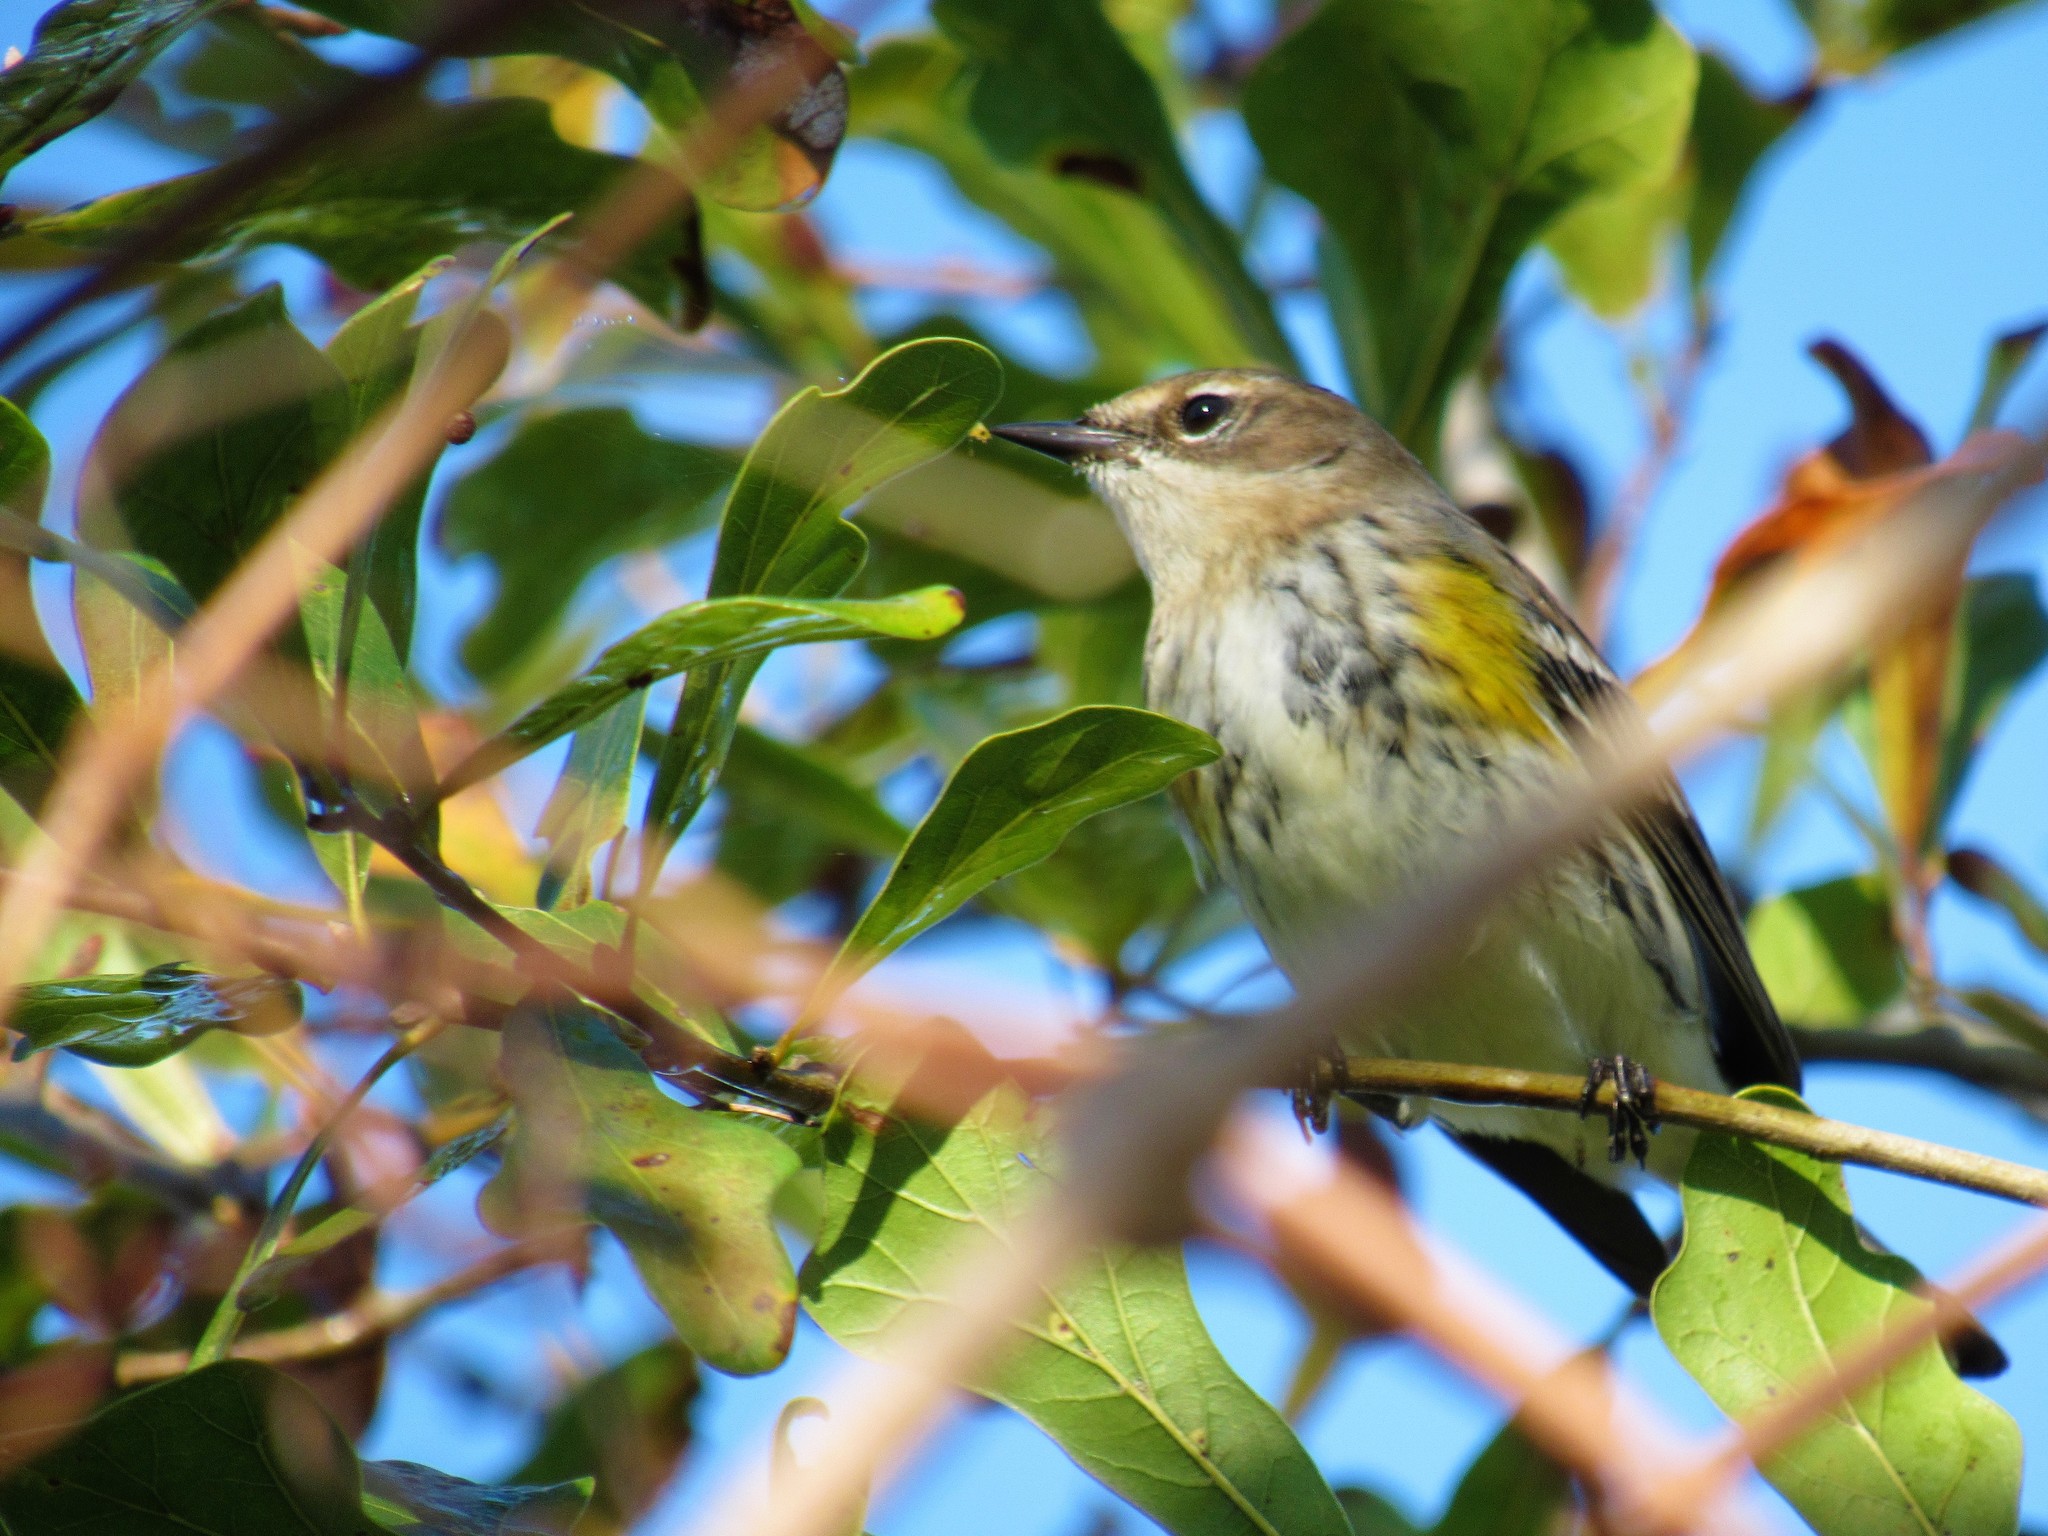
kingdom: Animalia
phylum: Chordata
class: Aves
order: Passeriformes
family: Parulidae
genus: Setophaga
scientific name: Setophaga coronata
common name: Myrtle warbler
